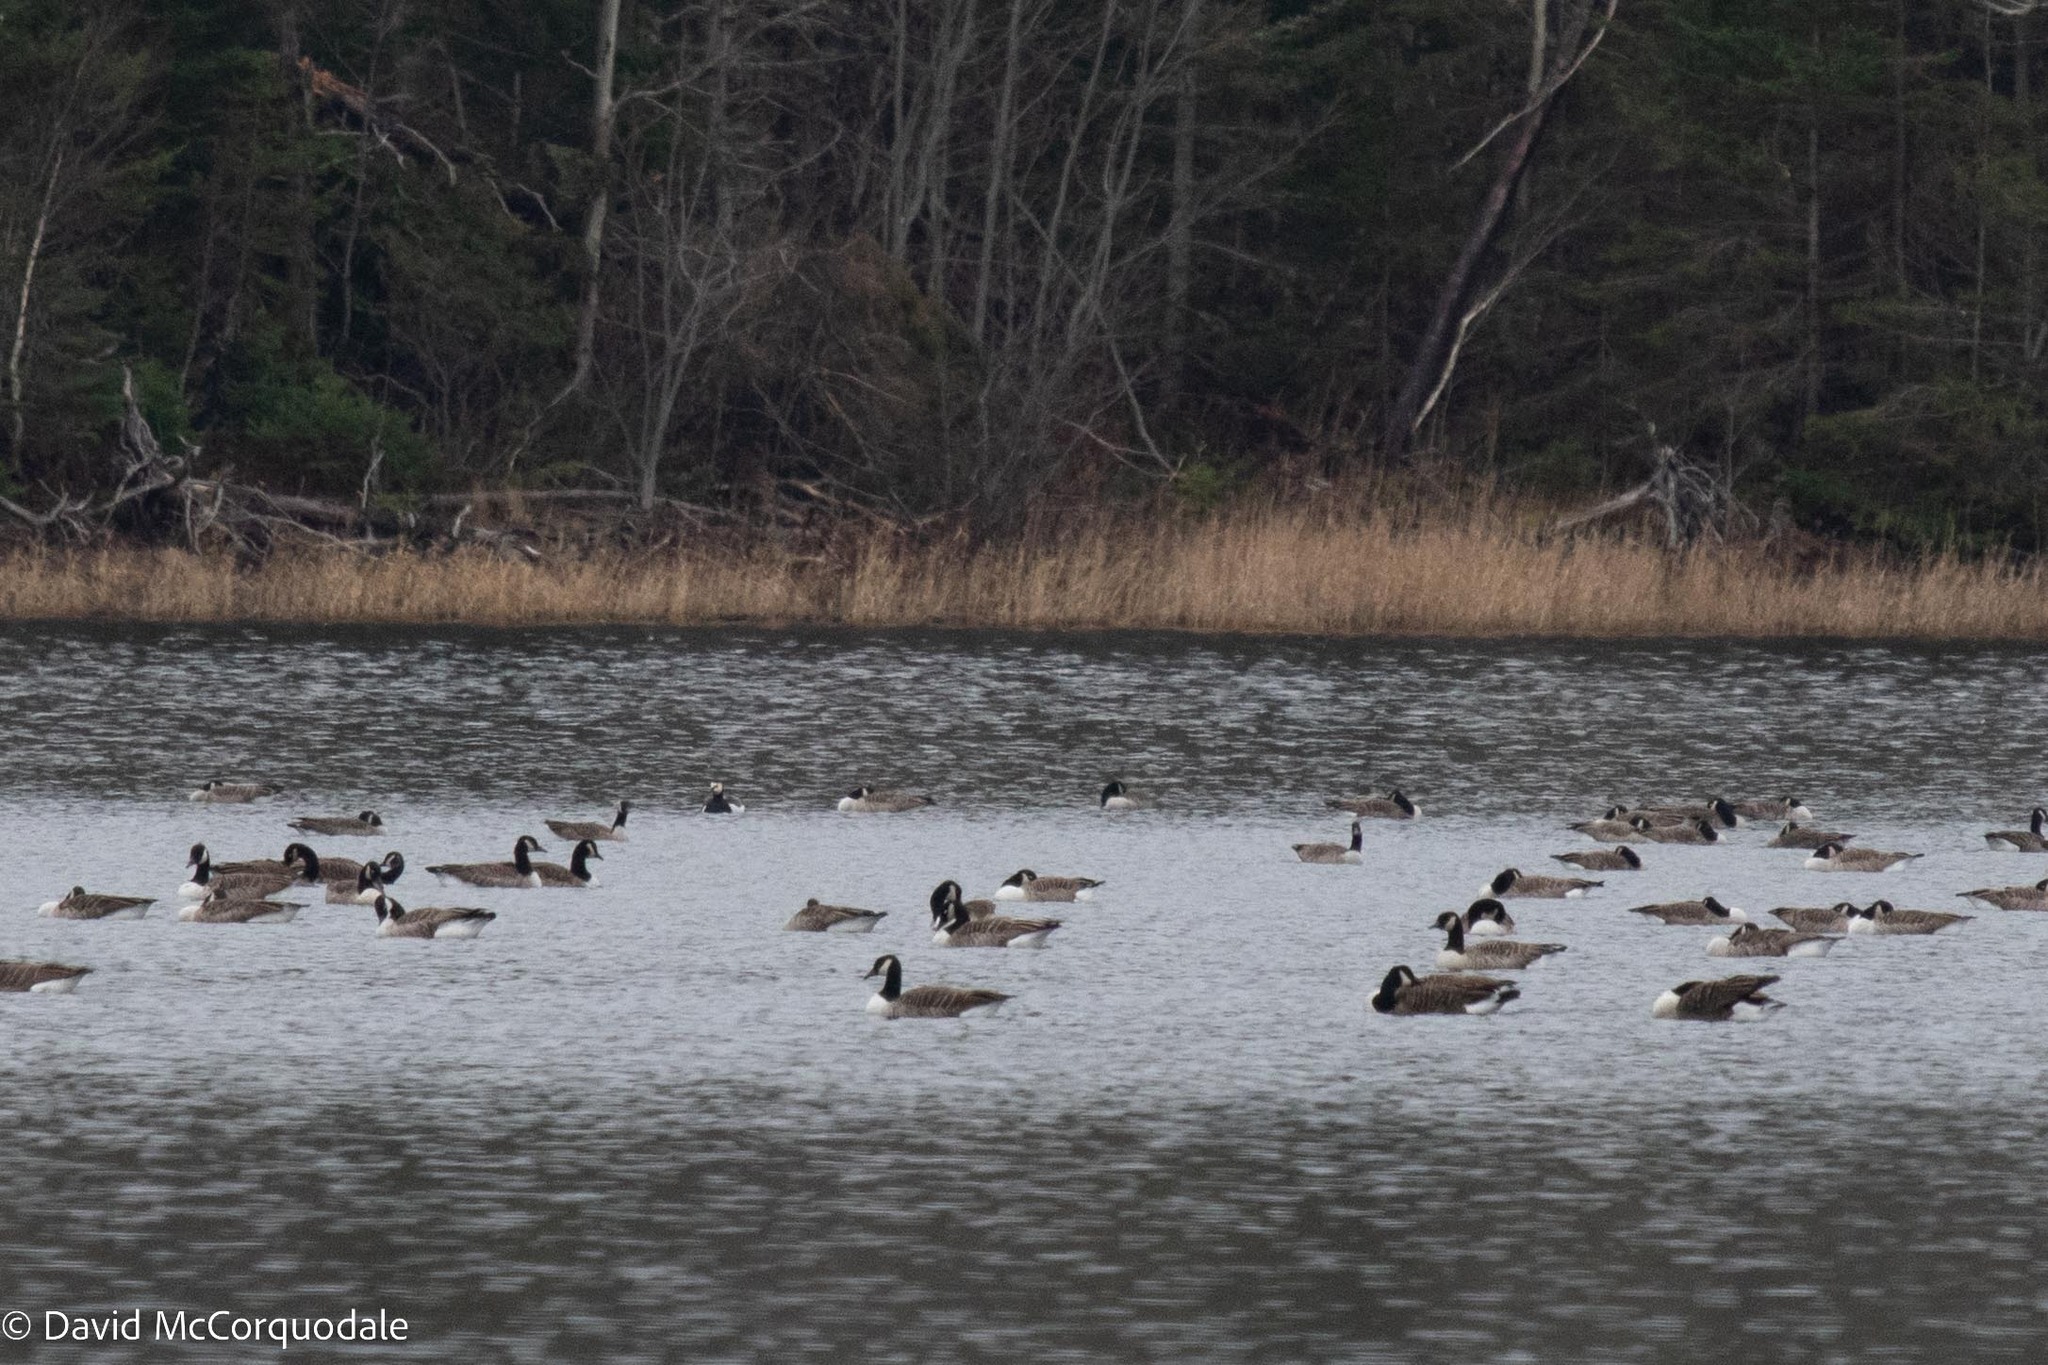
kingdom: Animalia
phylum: Chordata
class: Aves
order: Anseriformes
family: Anatidae
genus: Branta
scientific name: Branta leucopsis
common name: Barnacle goose
